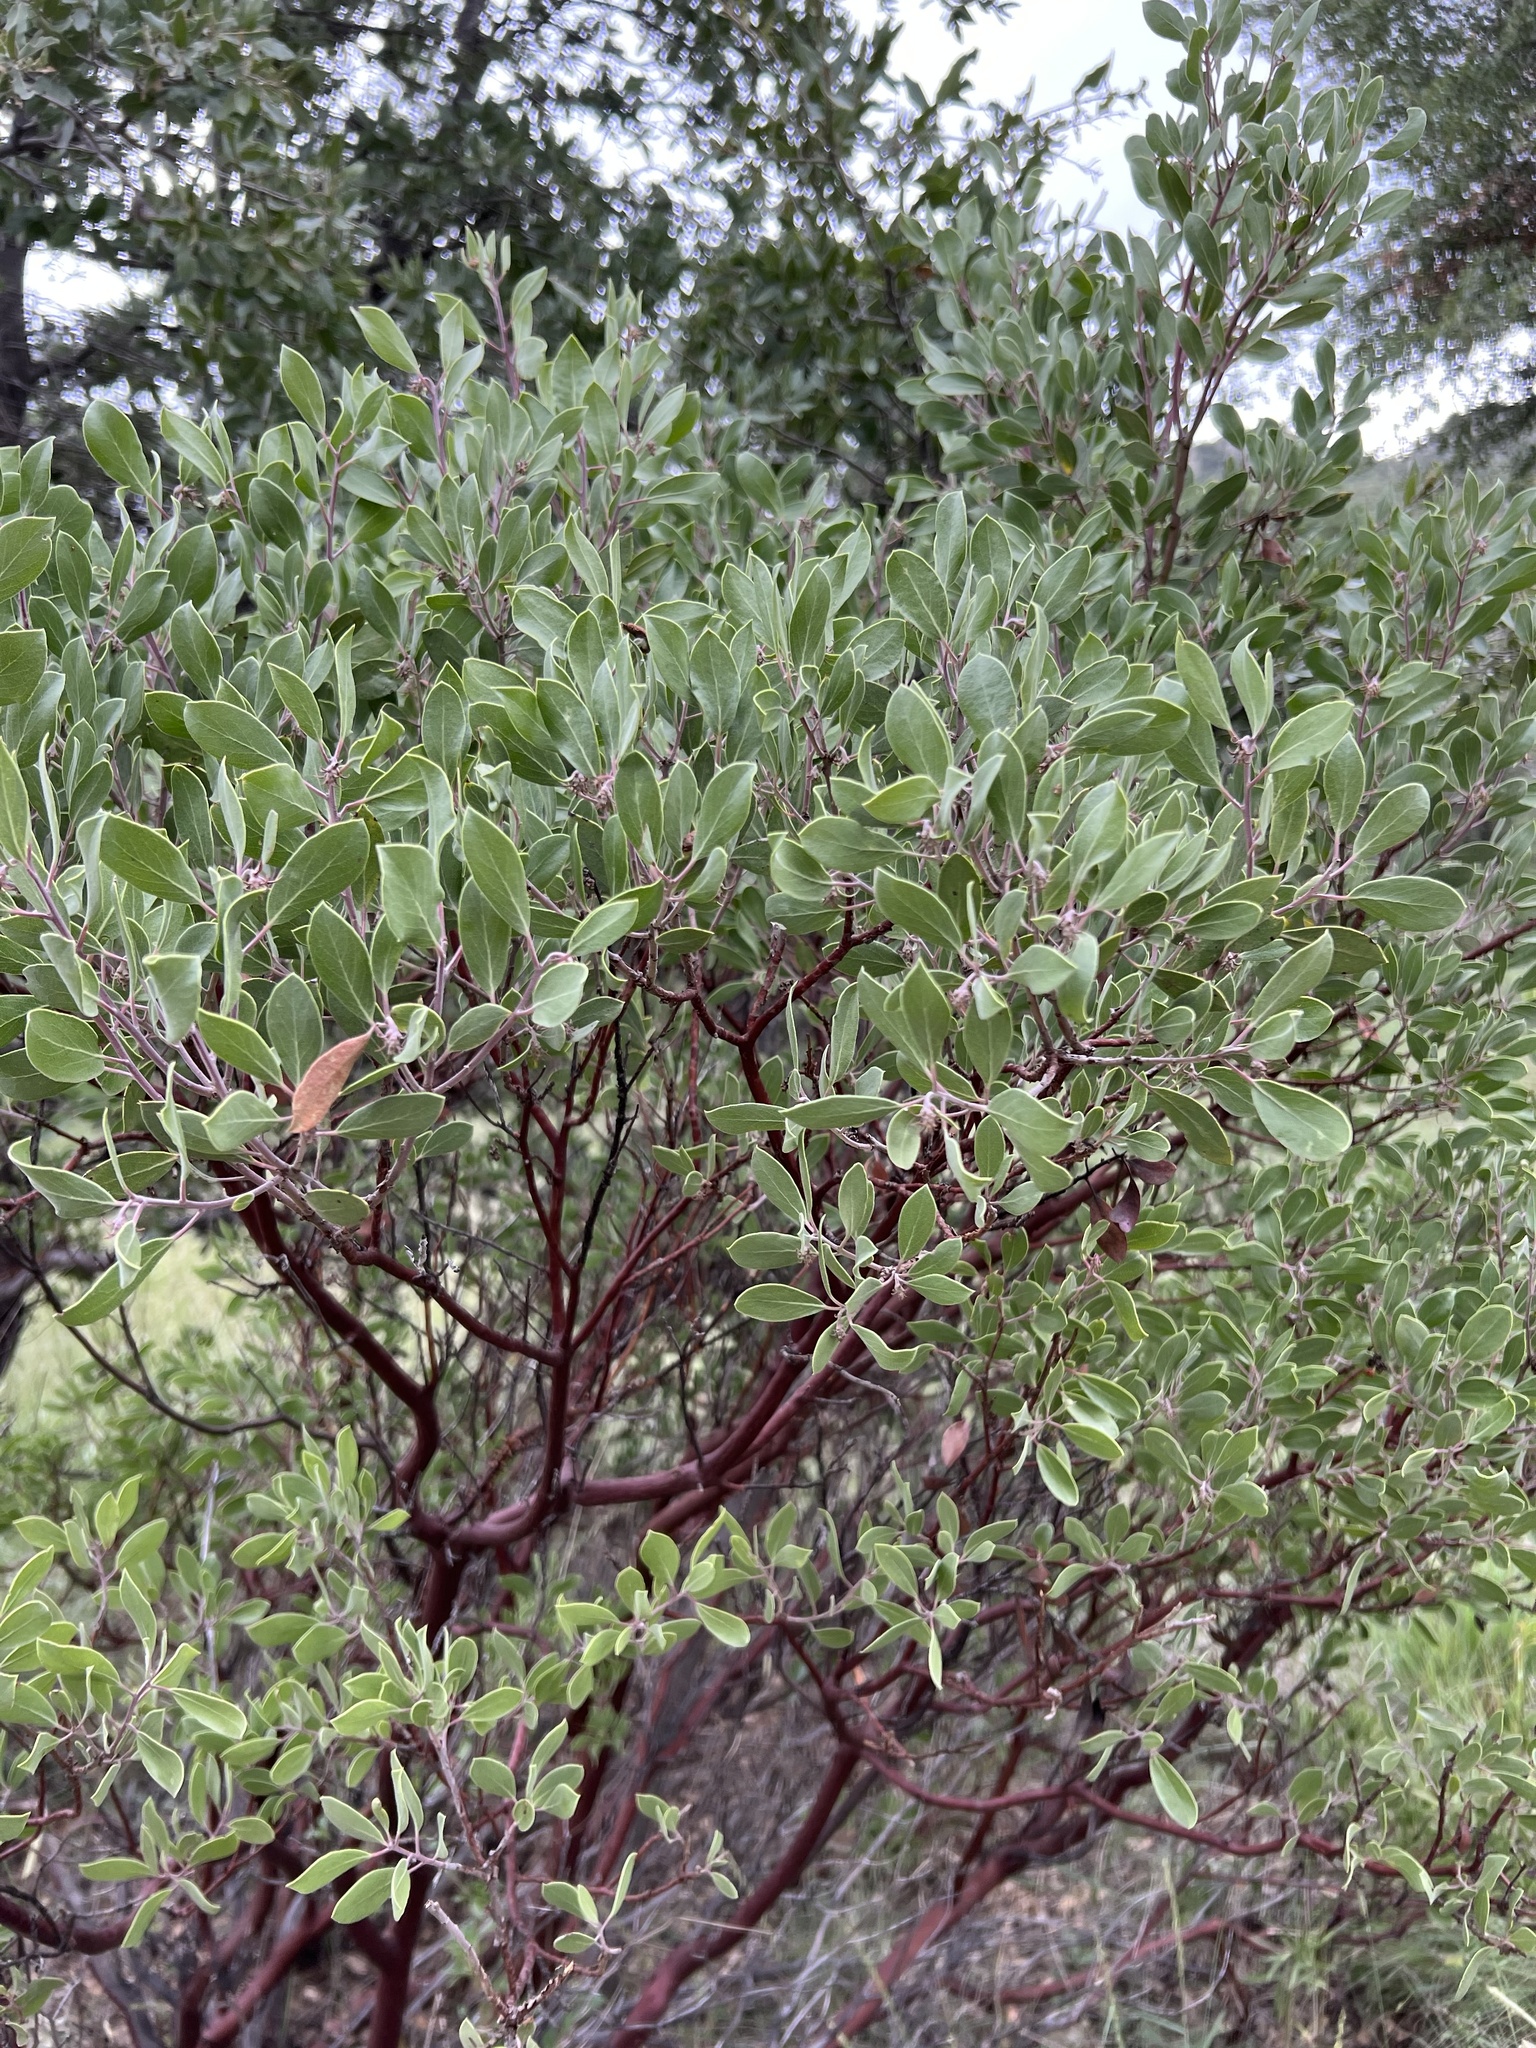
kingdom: Plantae
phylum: Tracheophyta
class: Magnoliopsida
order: Ericales
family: Ericaceae
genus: Arctostaphylos
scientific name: Arctostaphylos pungens
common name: Mexican manzanita
